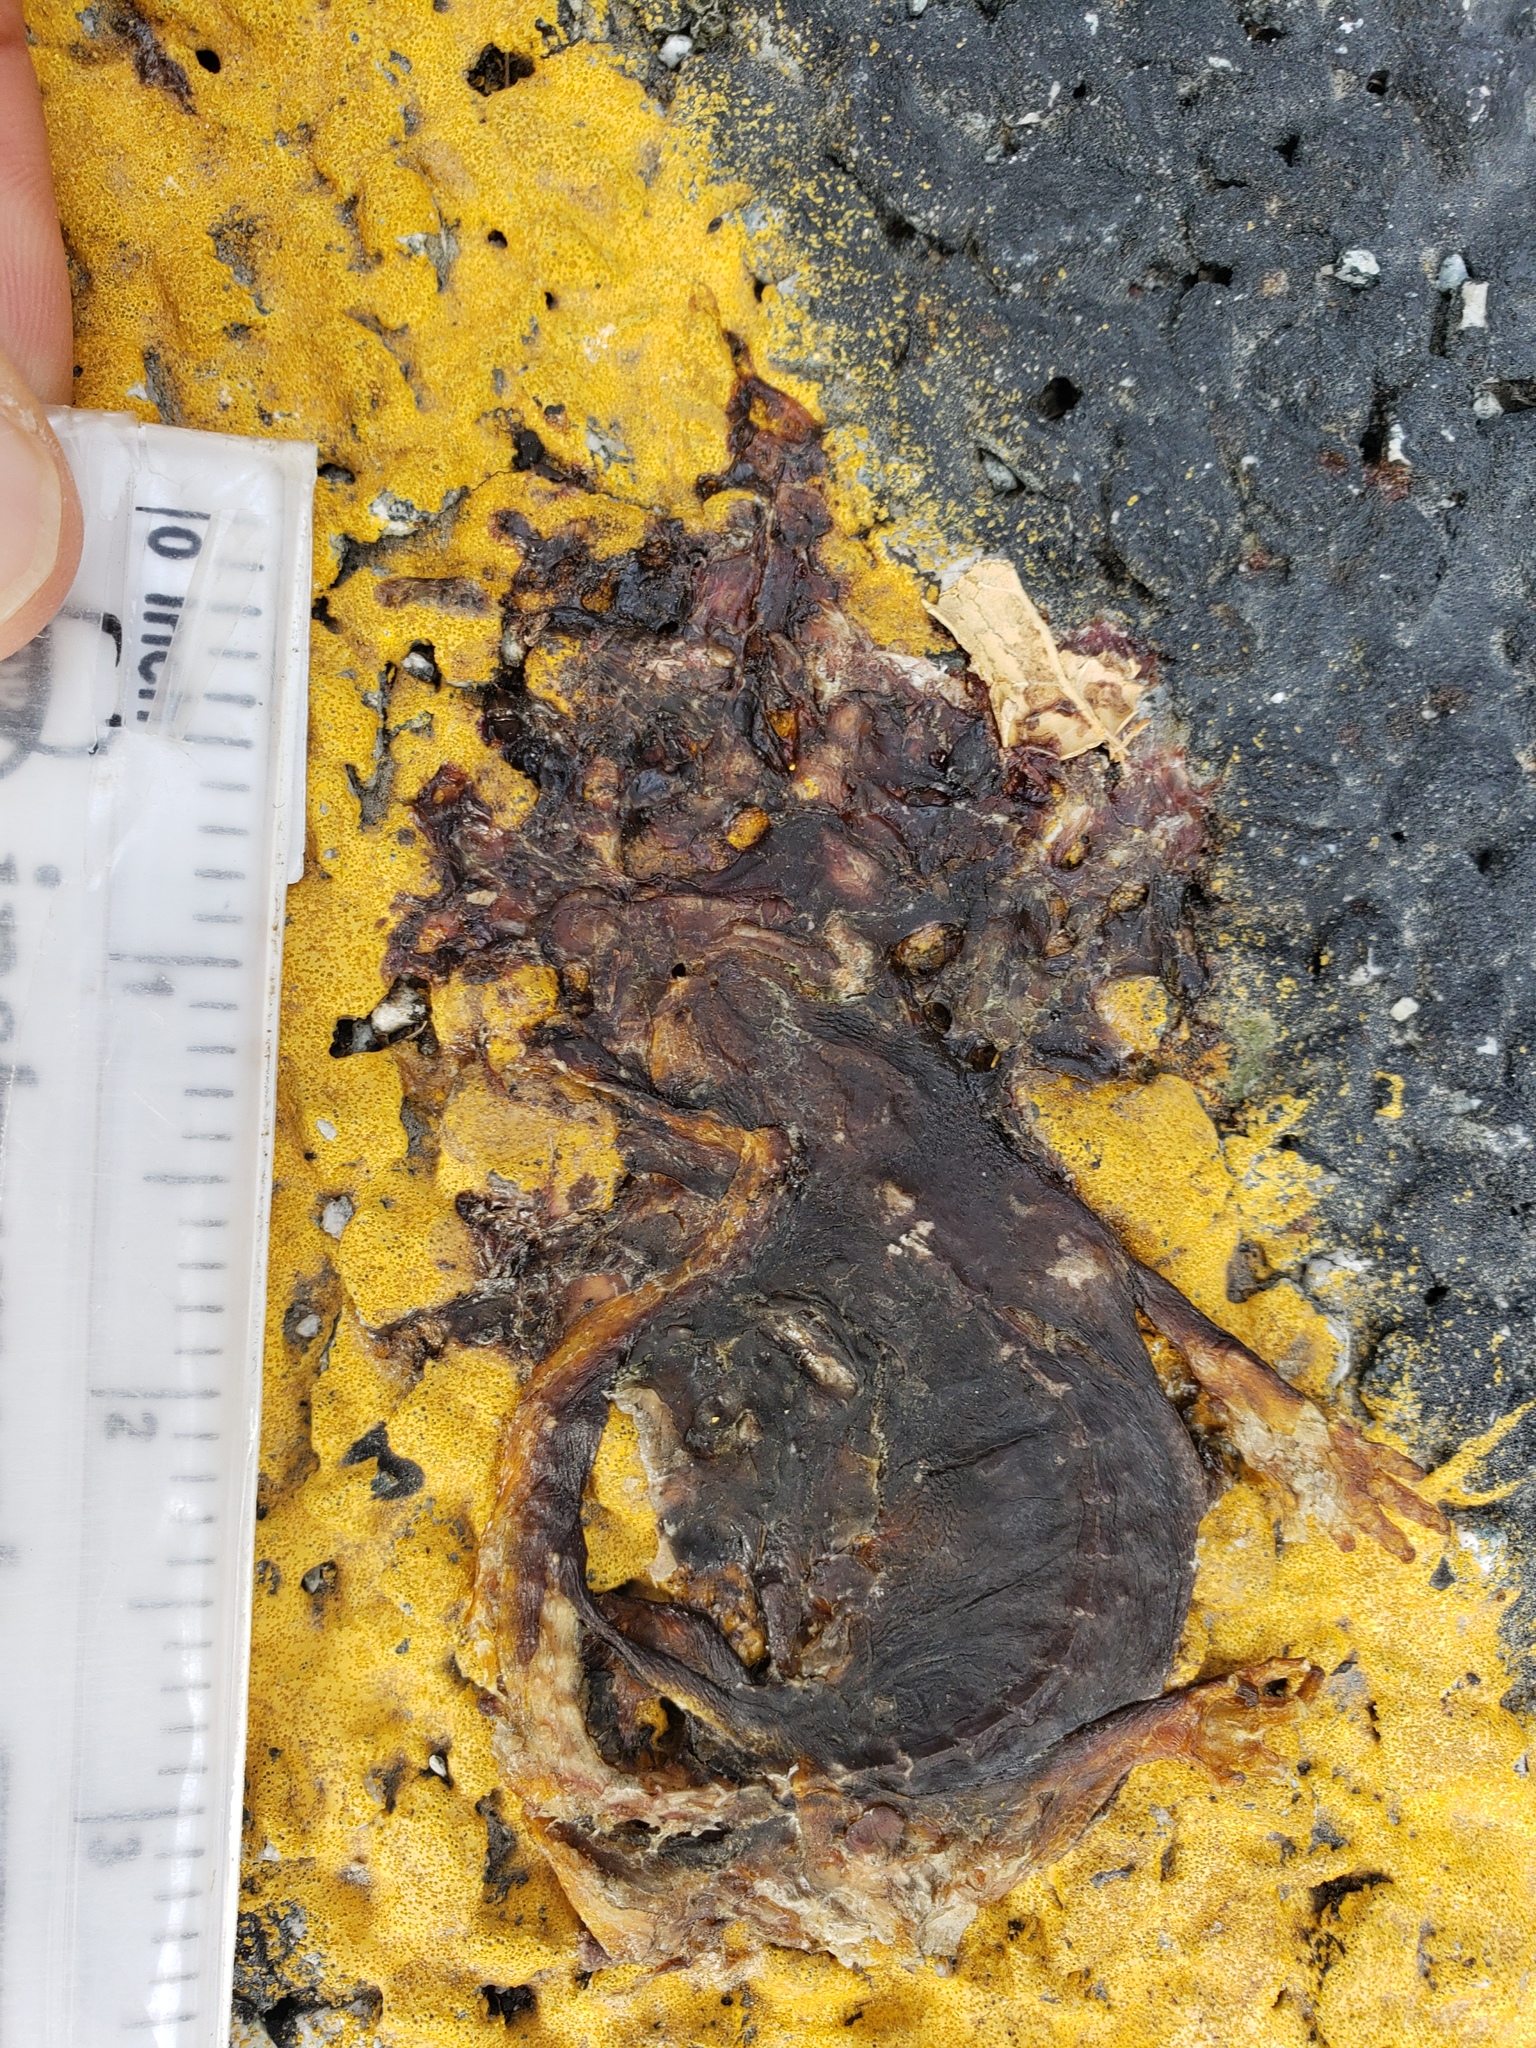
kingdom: Animalia
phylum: Chordata
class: Amphibia
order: Caudata
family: Salamandridae
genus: Taricha
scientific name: Taricha
